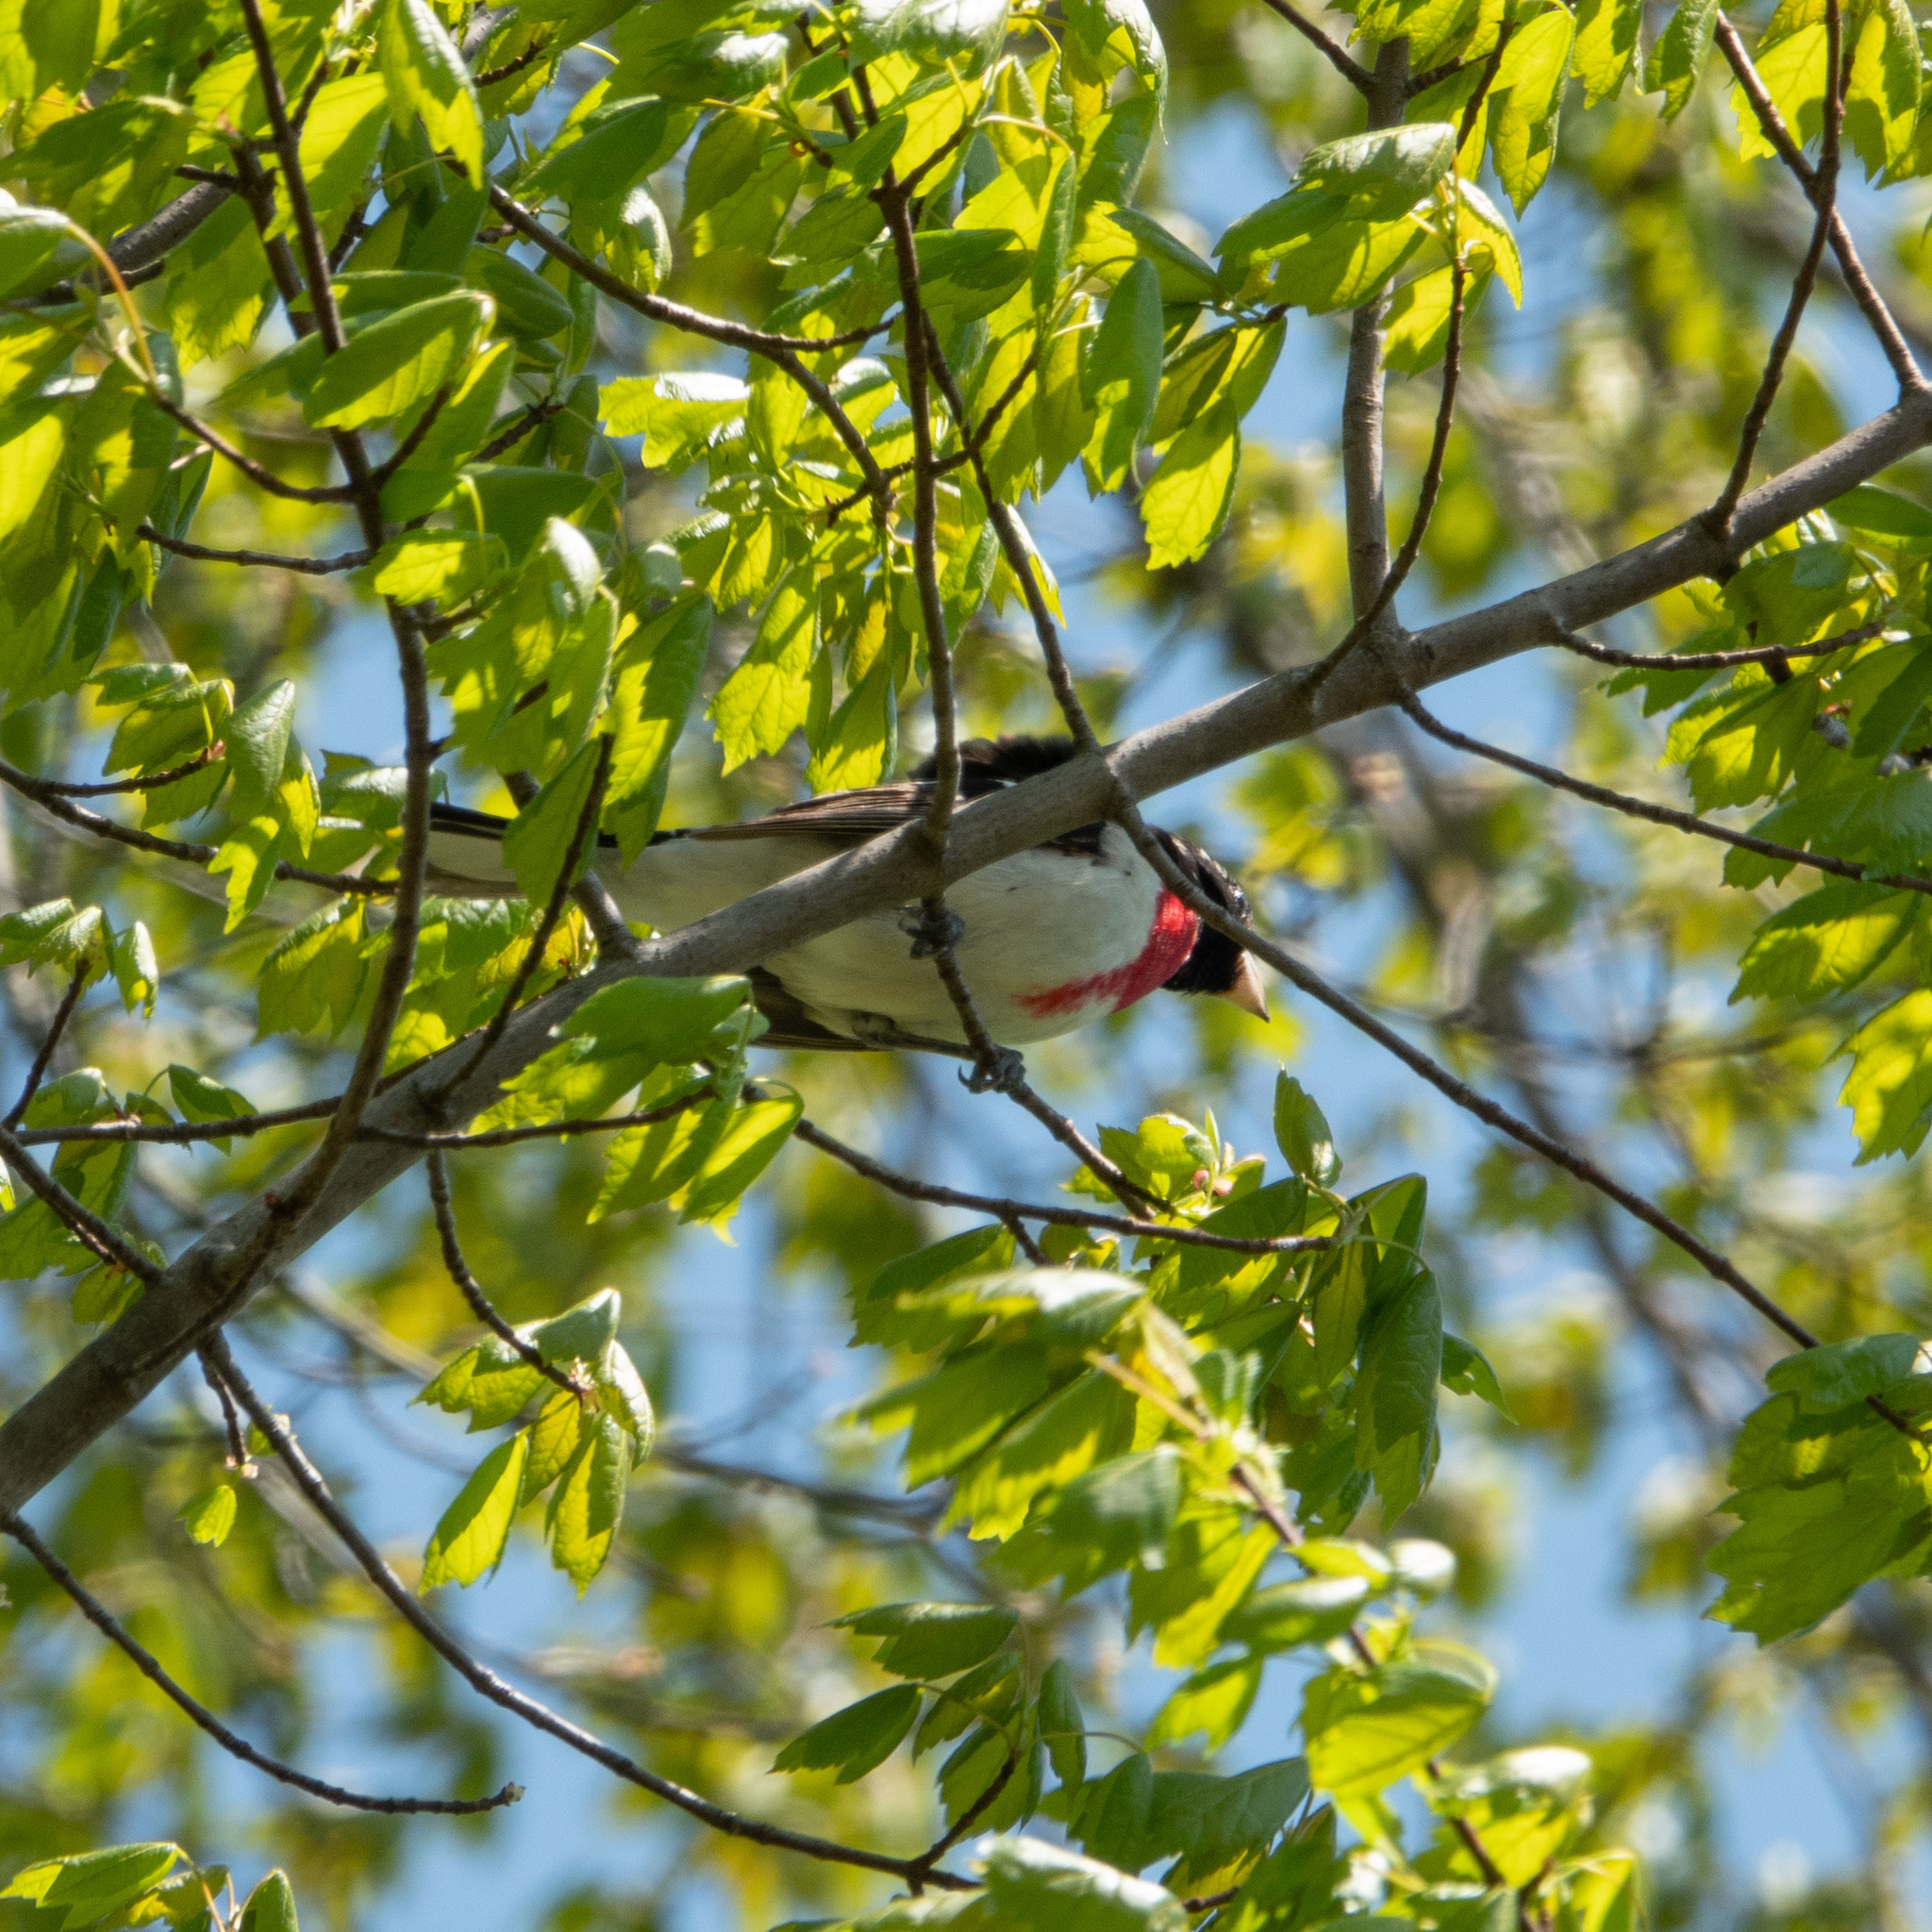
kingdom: Animalia
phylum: Chordata
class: Aves
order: Passeriformes
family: Cardinalidae
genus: Pheucticus
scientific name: Pheucticus ludovicianus
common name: Rose-breasted grosbeak
